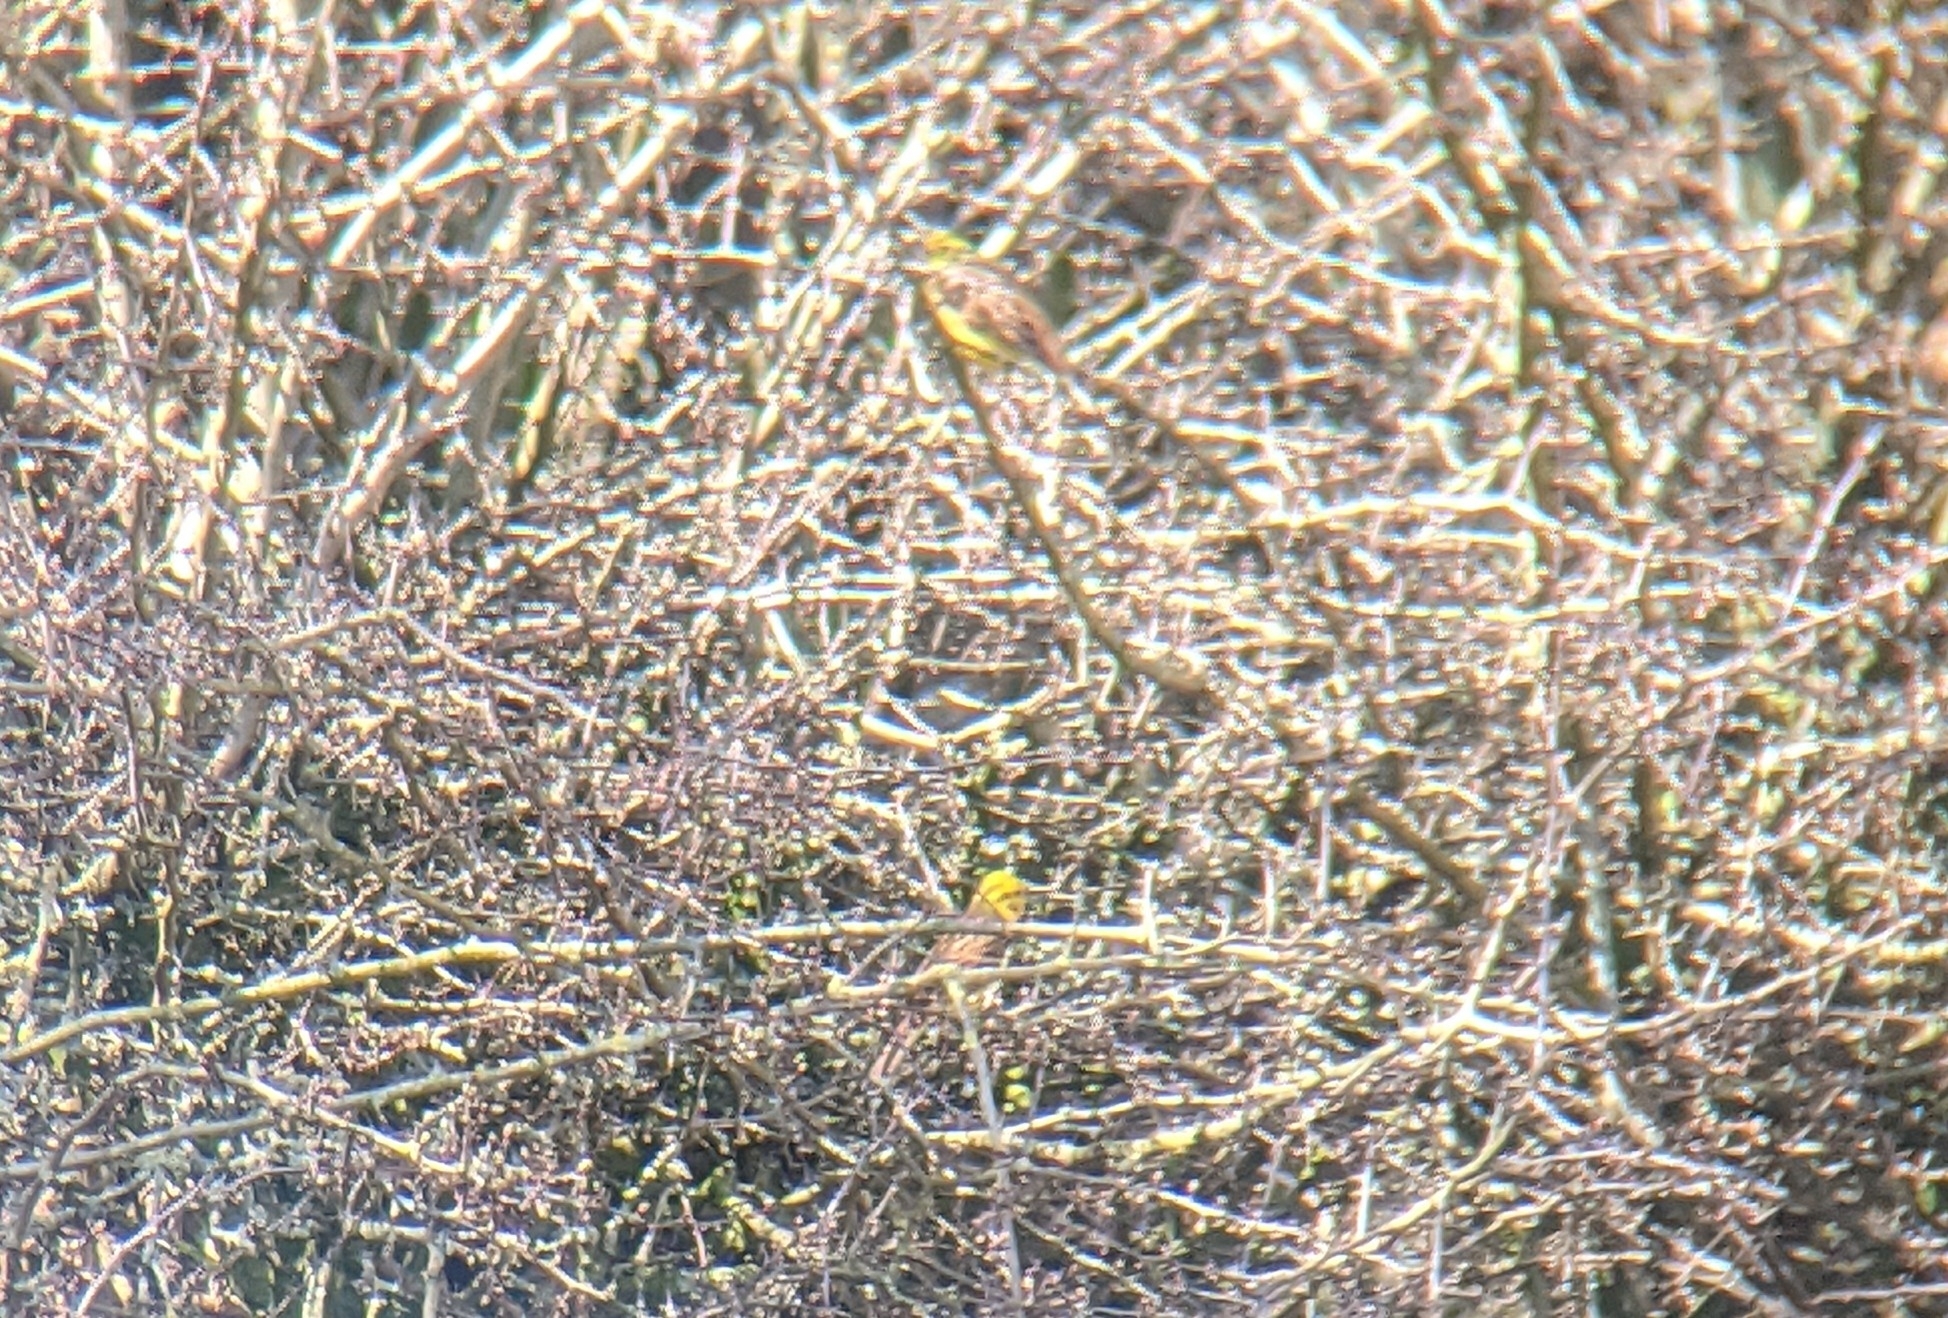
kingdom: Animalia
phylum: Chordata
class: Aves
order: Passeriformes
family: Emberizidae
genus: Emberiza
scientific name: Emberiza citrinella
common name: Yellowhammer
